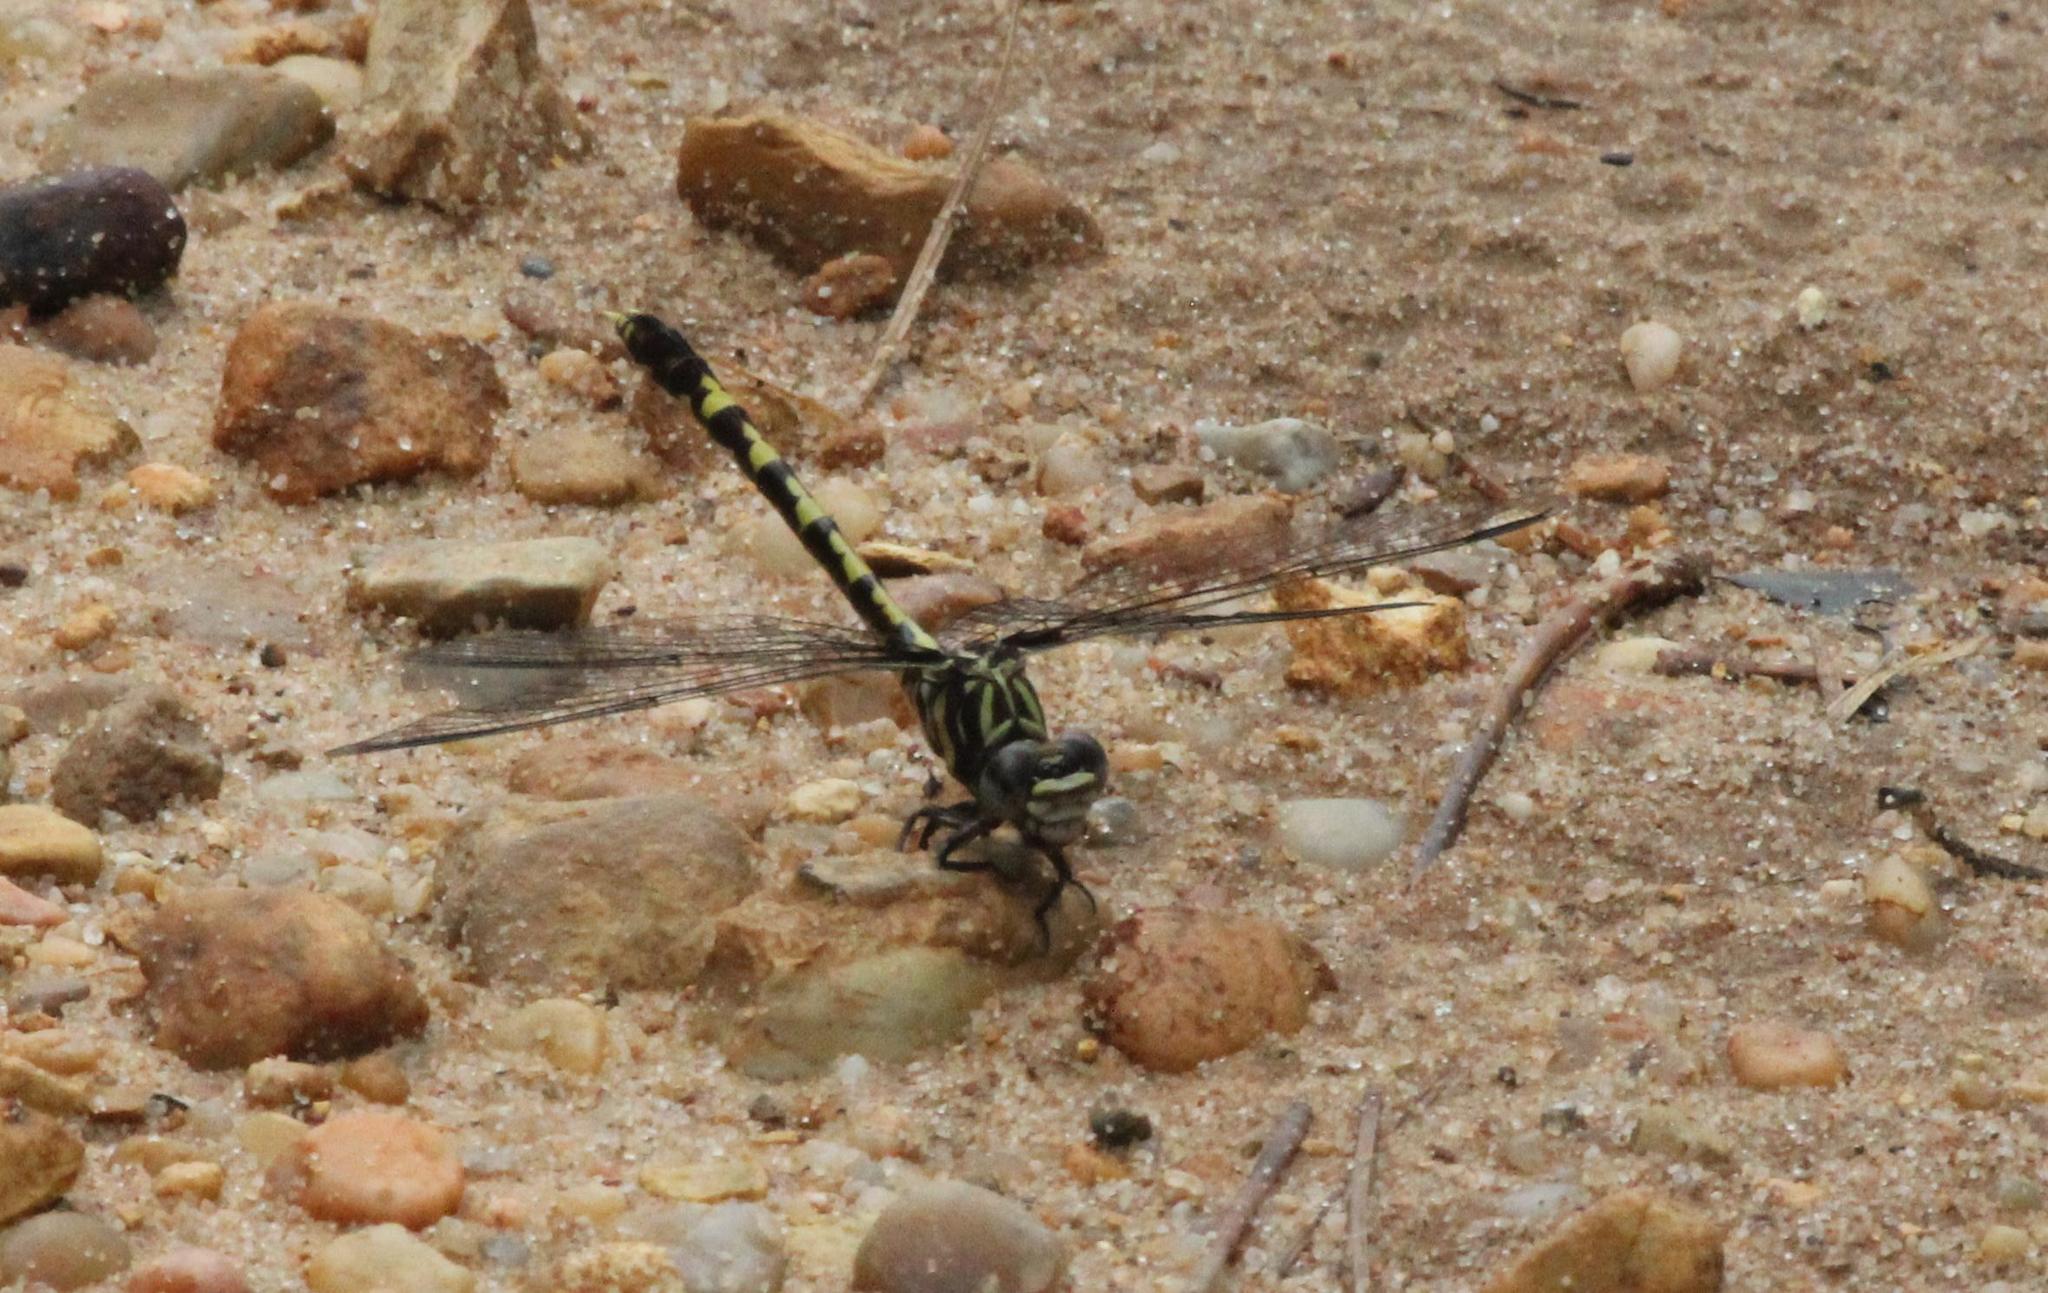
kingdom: Animalia
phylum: Arthropoda
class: Insecta
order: Odonata
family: Gomphidae
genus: Progomphus
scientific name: Progomphus obscurus
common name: Common sanddragon
